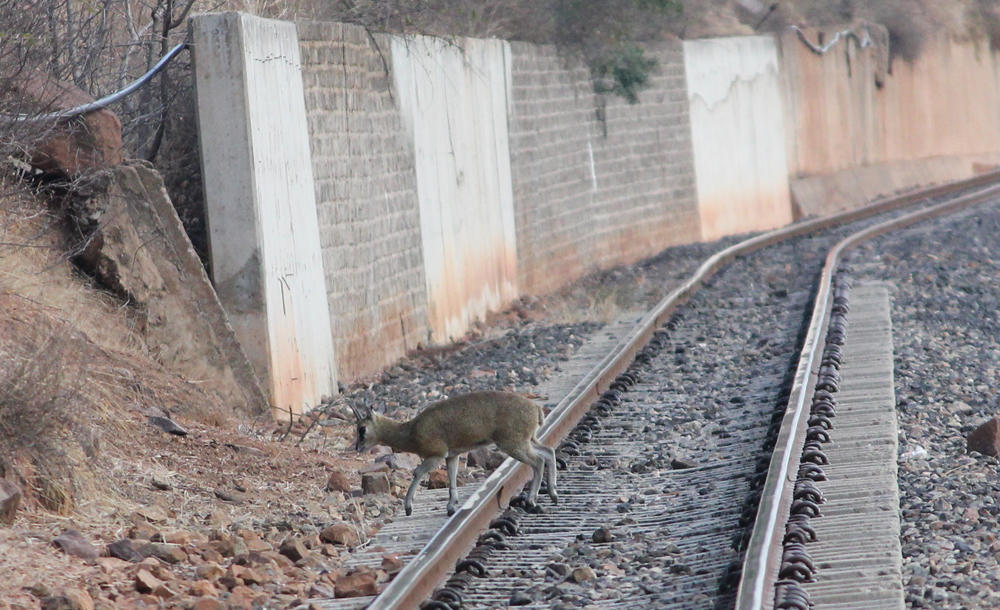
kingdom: Animalia
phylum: Chordata
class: Mammalia
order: Artiodactyla
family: Bovidae
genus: Oreotragus
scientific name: Oreotragus oreotragus
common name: Klipspringer
